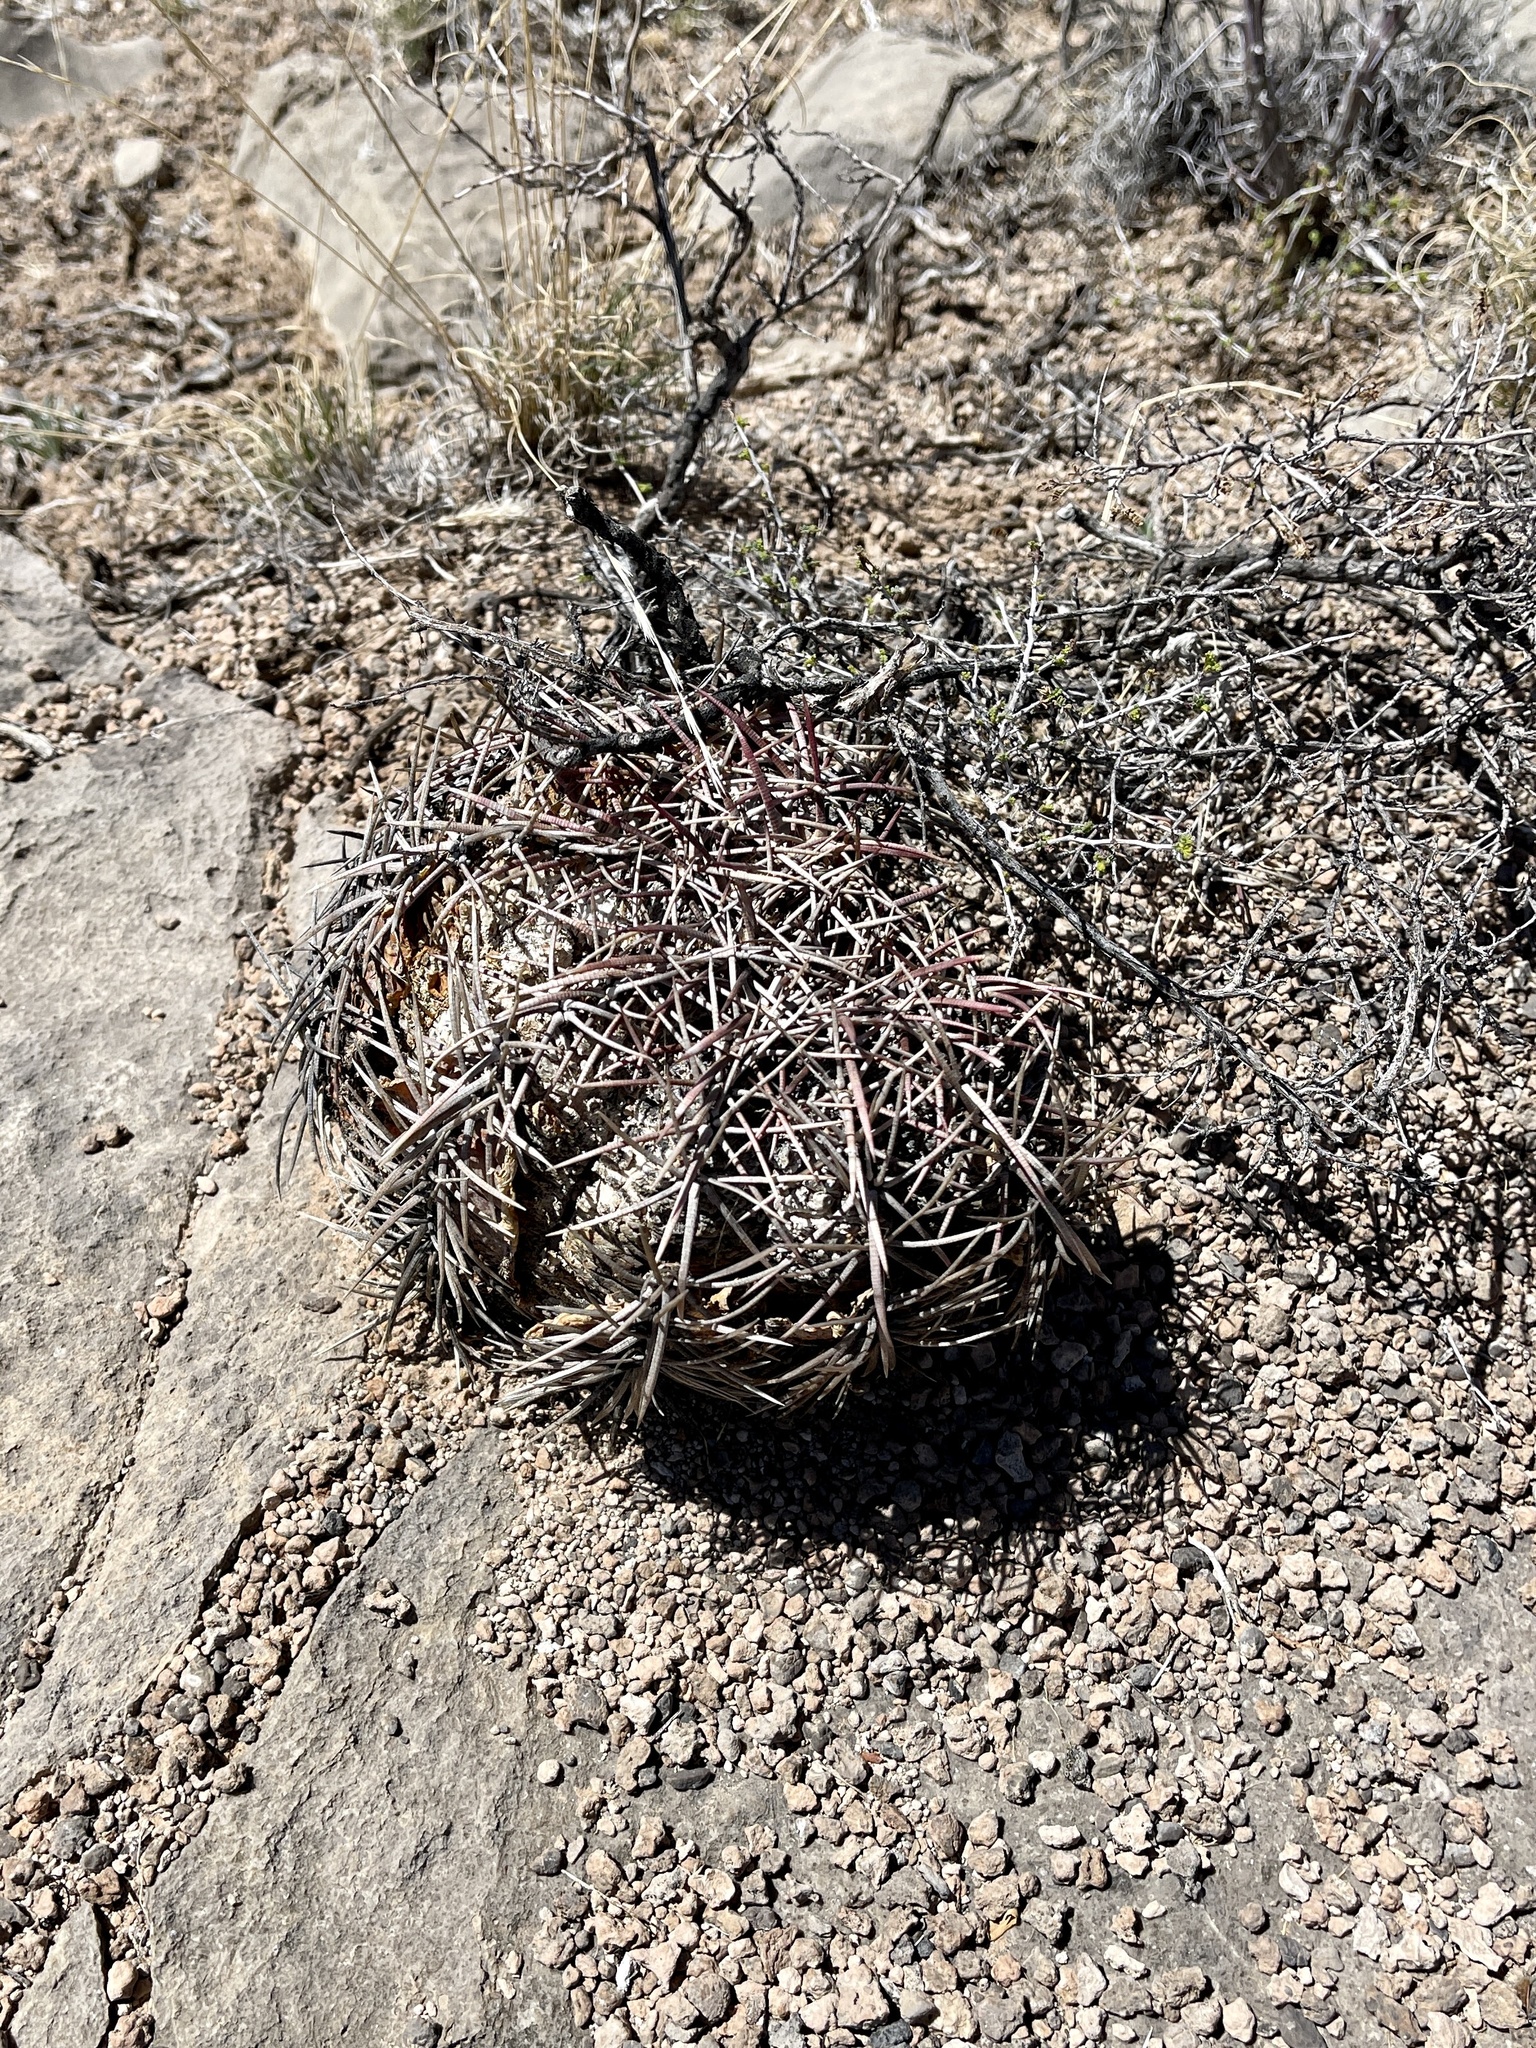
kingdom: Plantae
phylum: Tracheophyta
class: Magnoliopsida
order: Caryophyllales
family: Cactaceae
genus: Echinocactus
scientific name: Echinocactus horizonthalonius
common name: Devilshead
